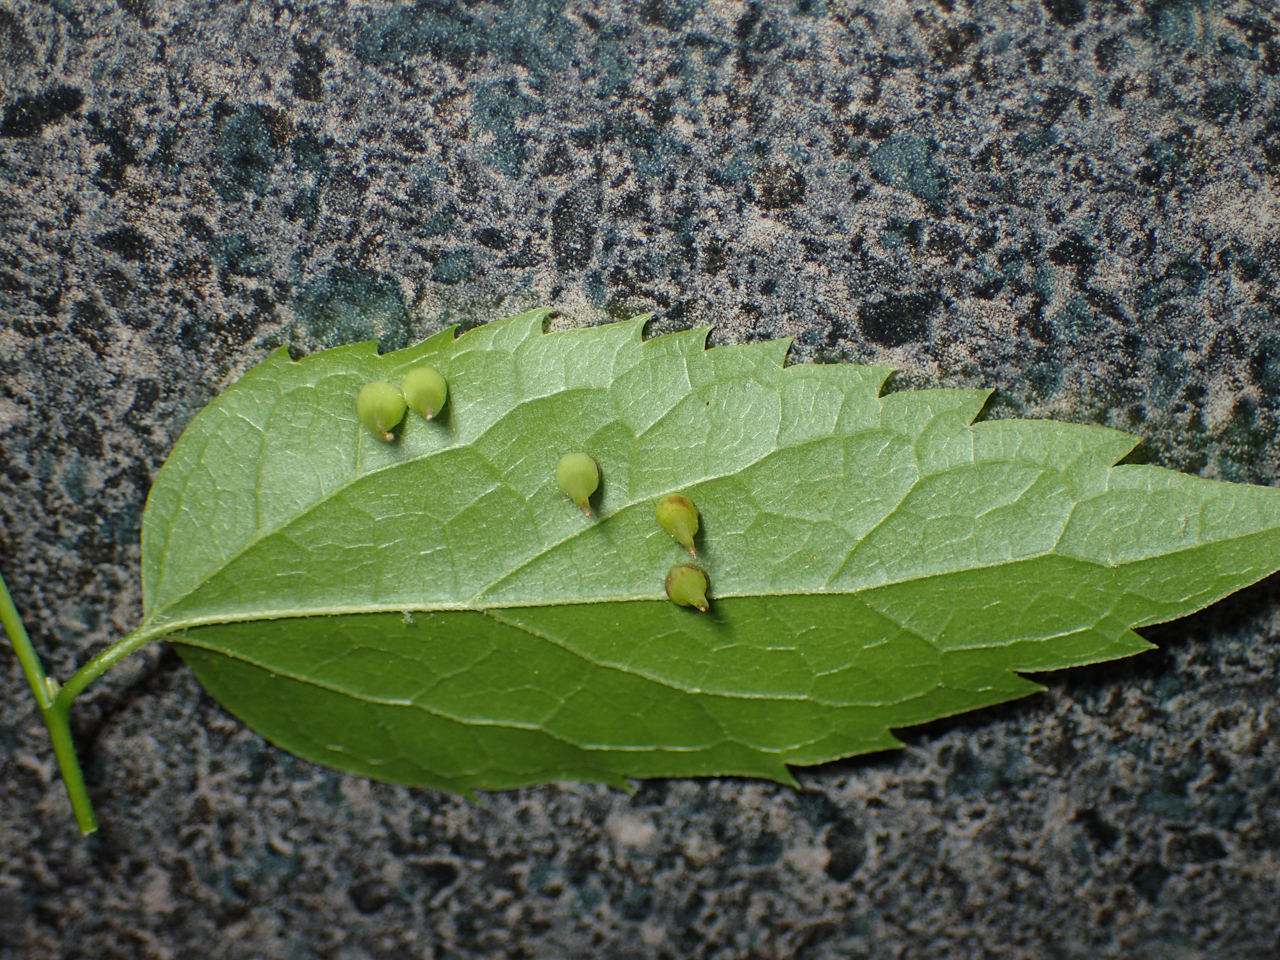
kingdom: Animalia
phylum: Arthropoda
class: Insecta
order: Diptera
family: Cecidomyiidae
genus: Celticecis
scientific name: Celticecis spiniformis
